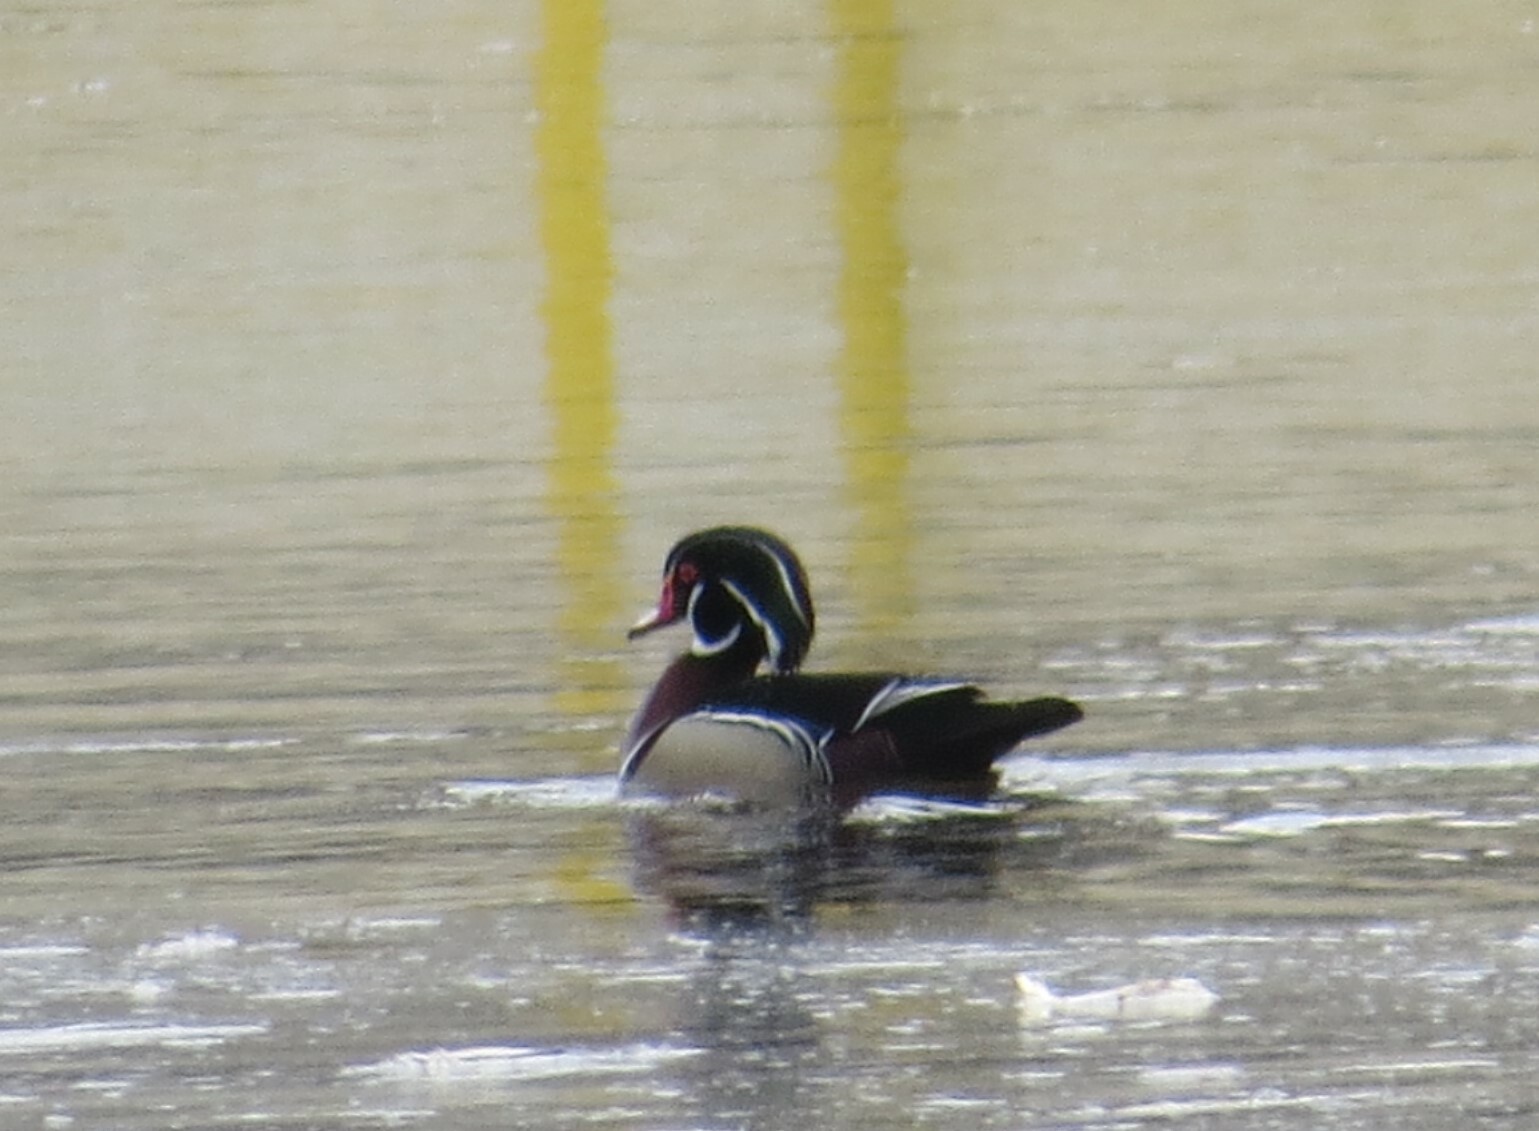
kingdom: Animalia
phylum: Chordata
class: Aves
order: Anseriformes
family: Anatidae
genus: Aix
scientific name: Aix sponsa
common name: Wood duck
